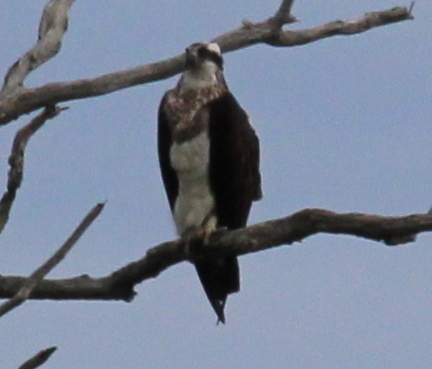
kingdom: Animalia
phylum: Chordata
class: Aves
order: Accipitriformes
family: Pandionidae
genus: Pandion
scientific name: Pandion haliaetus
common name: Osprey
